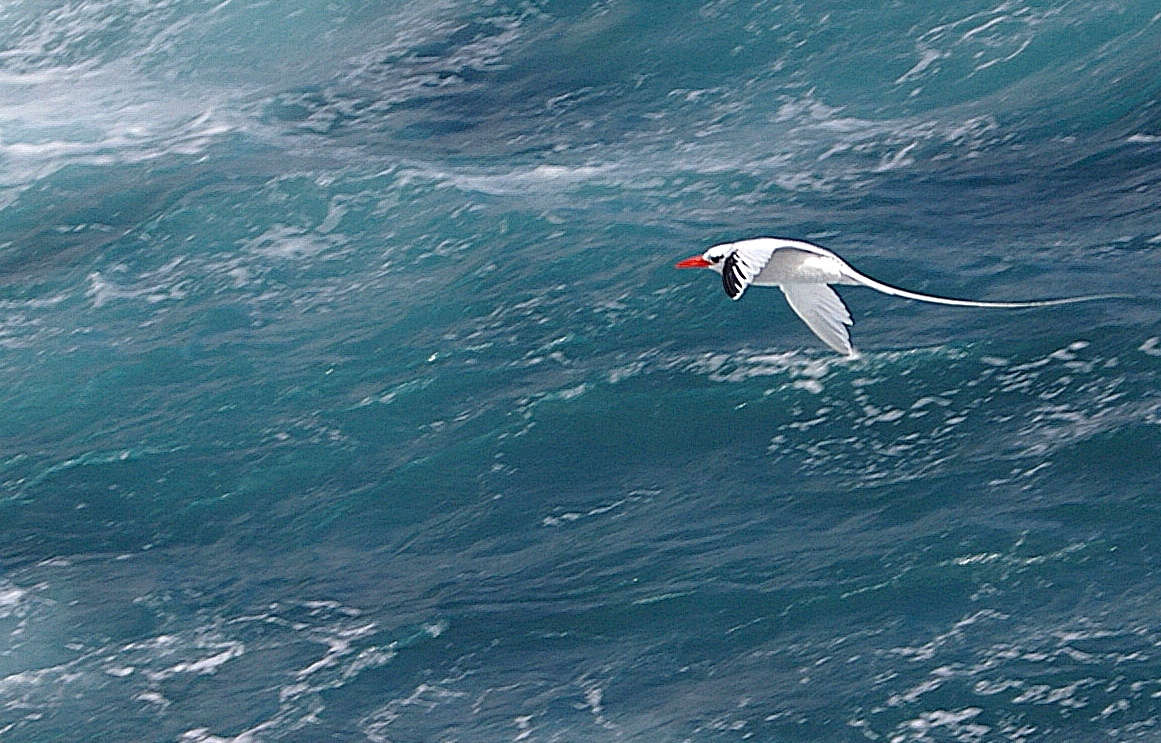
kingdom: Animalia
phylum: Chordata
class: Aves
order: Phaethontiformes
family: Phaethontidae
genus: Phaethon
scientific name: Phaethon aethereus
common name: Red-billed tropicbird
